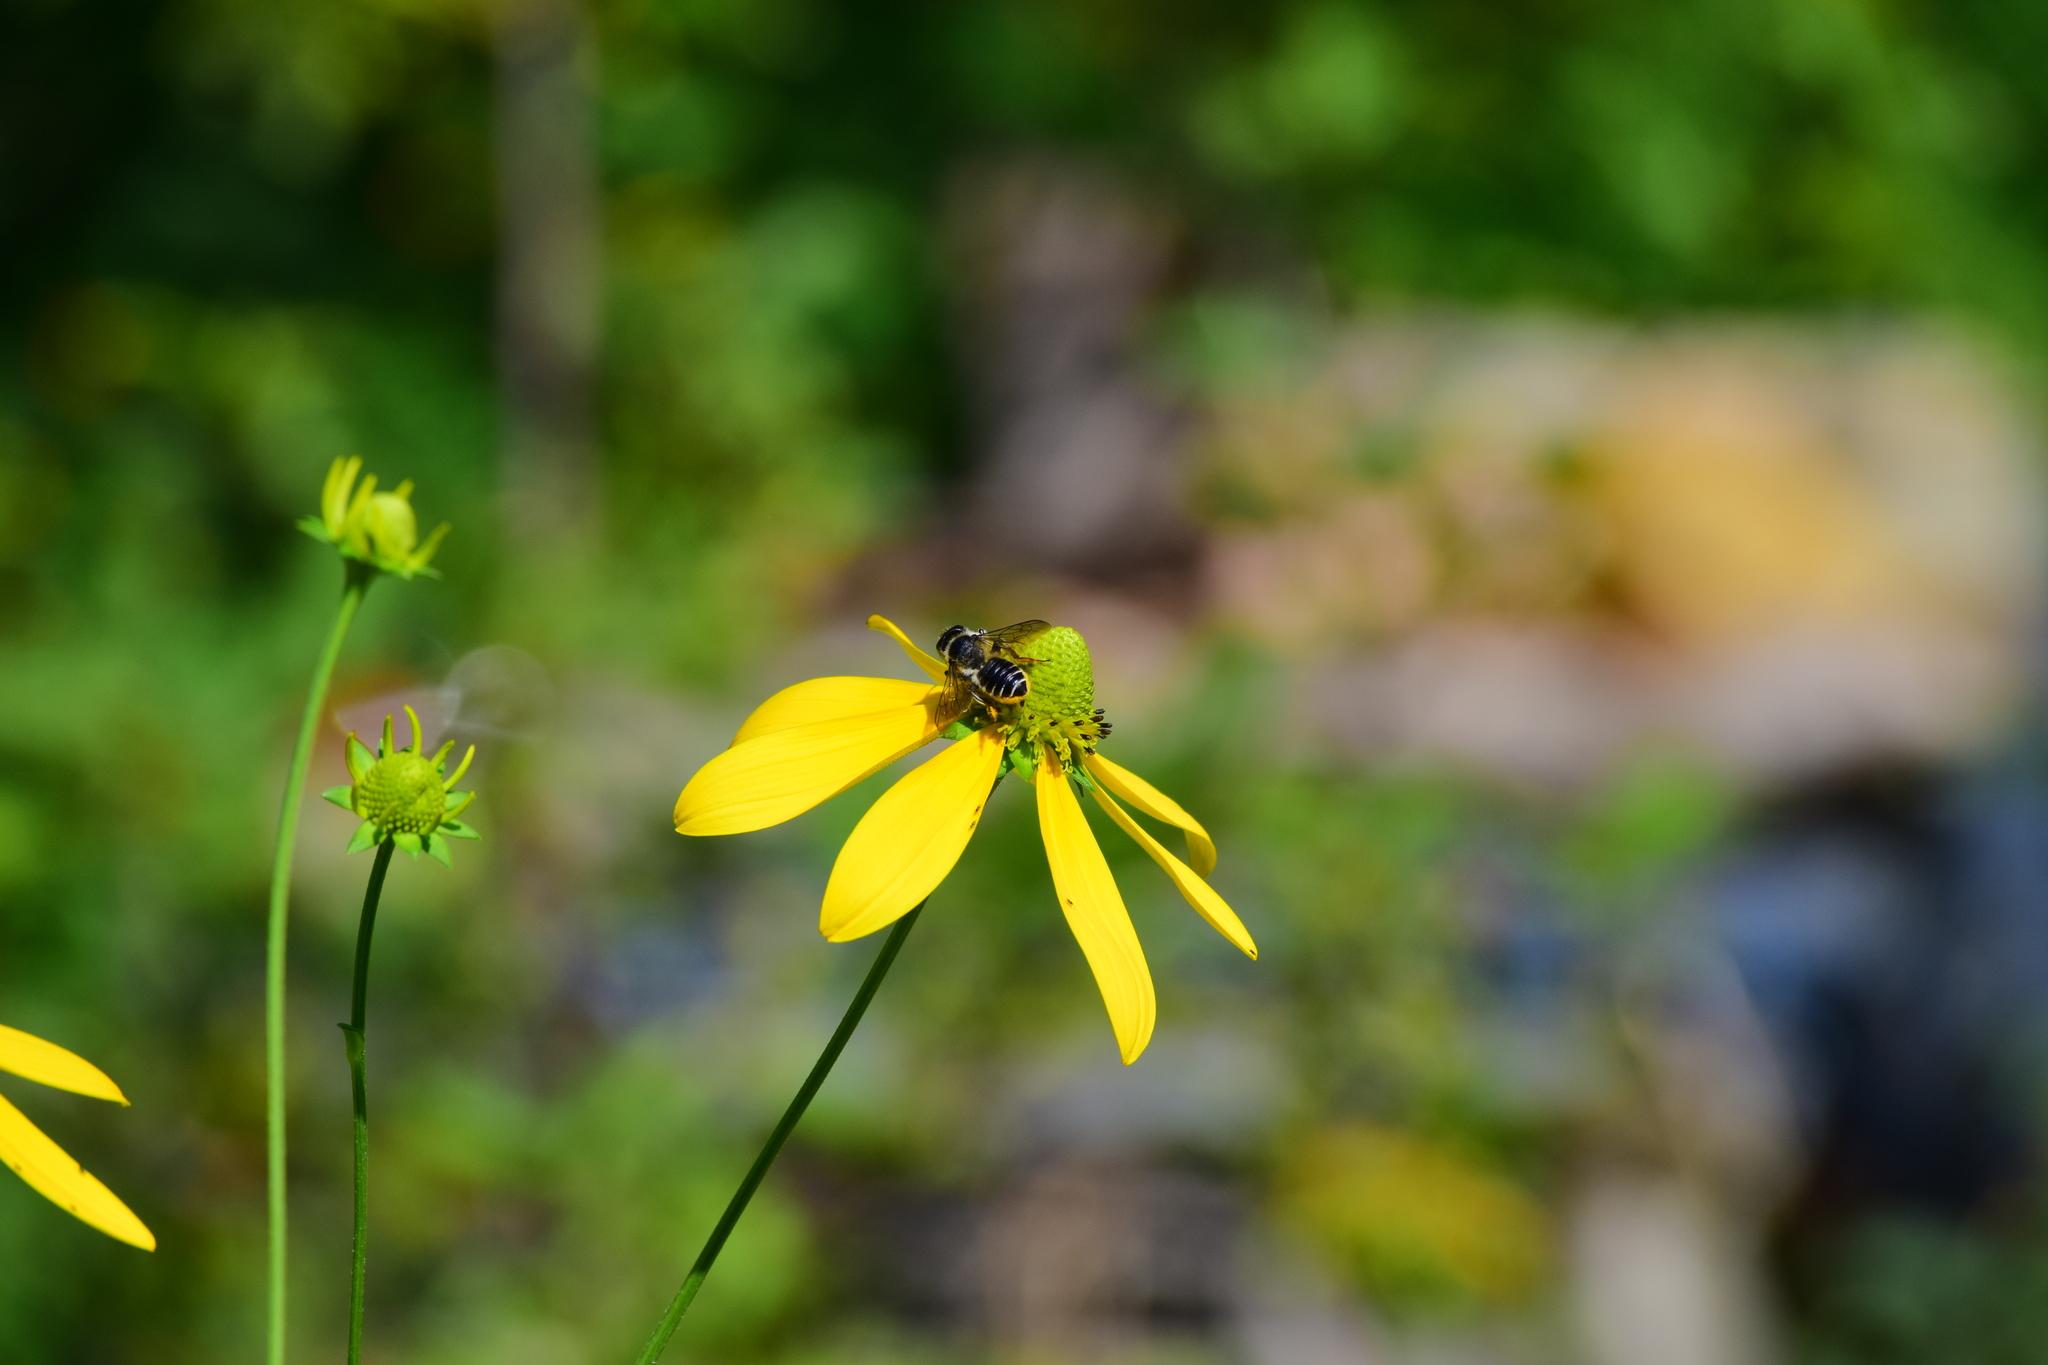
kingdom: Animalia
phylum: Arthropoda
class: Insecta
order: Hymenoptera
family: Megachilidae
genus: Megachile
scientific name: Megachile inermis
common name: Unarmed leafcutter bee
